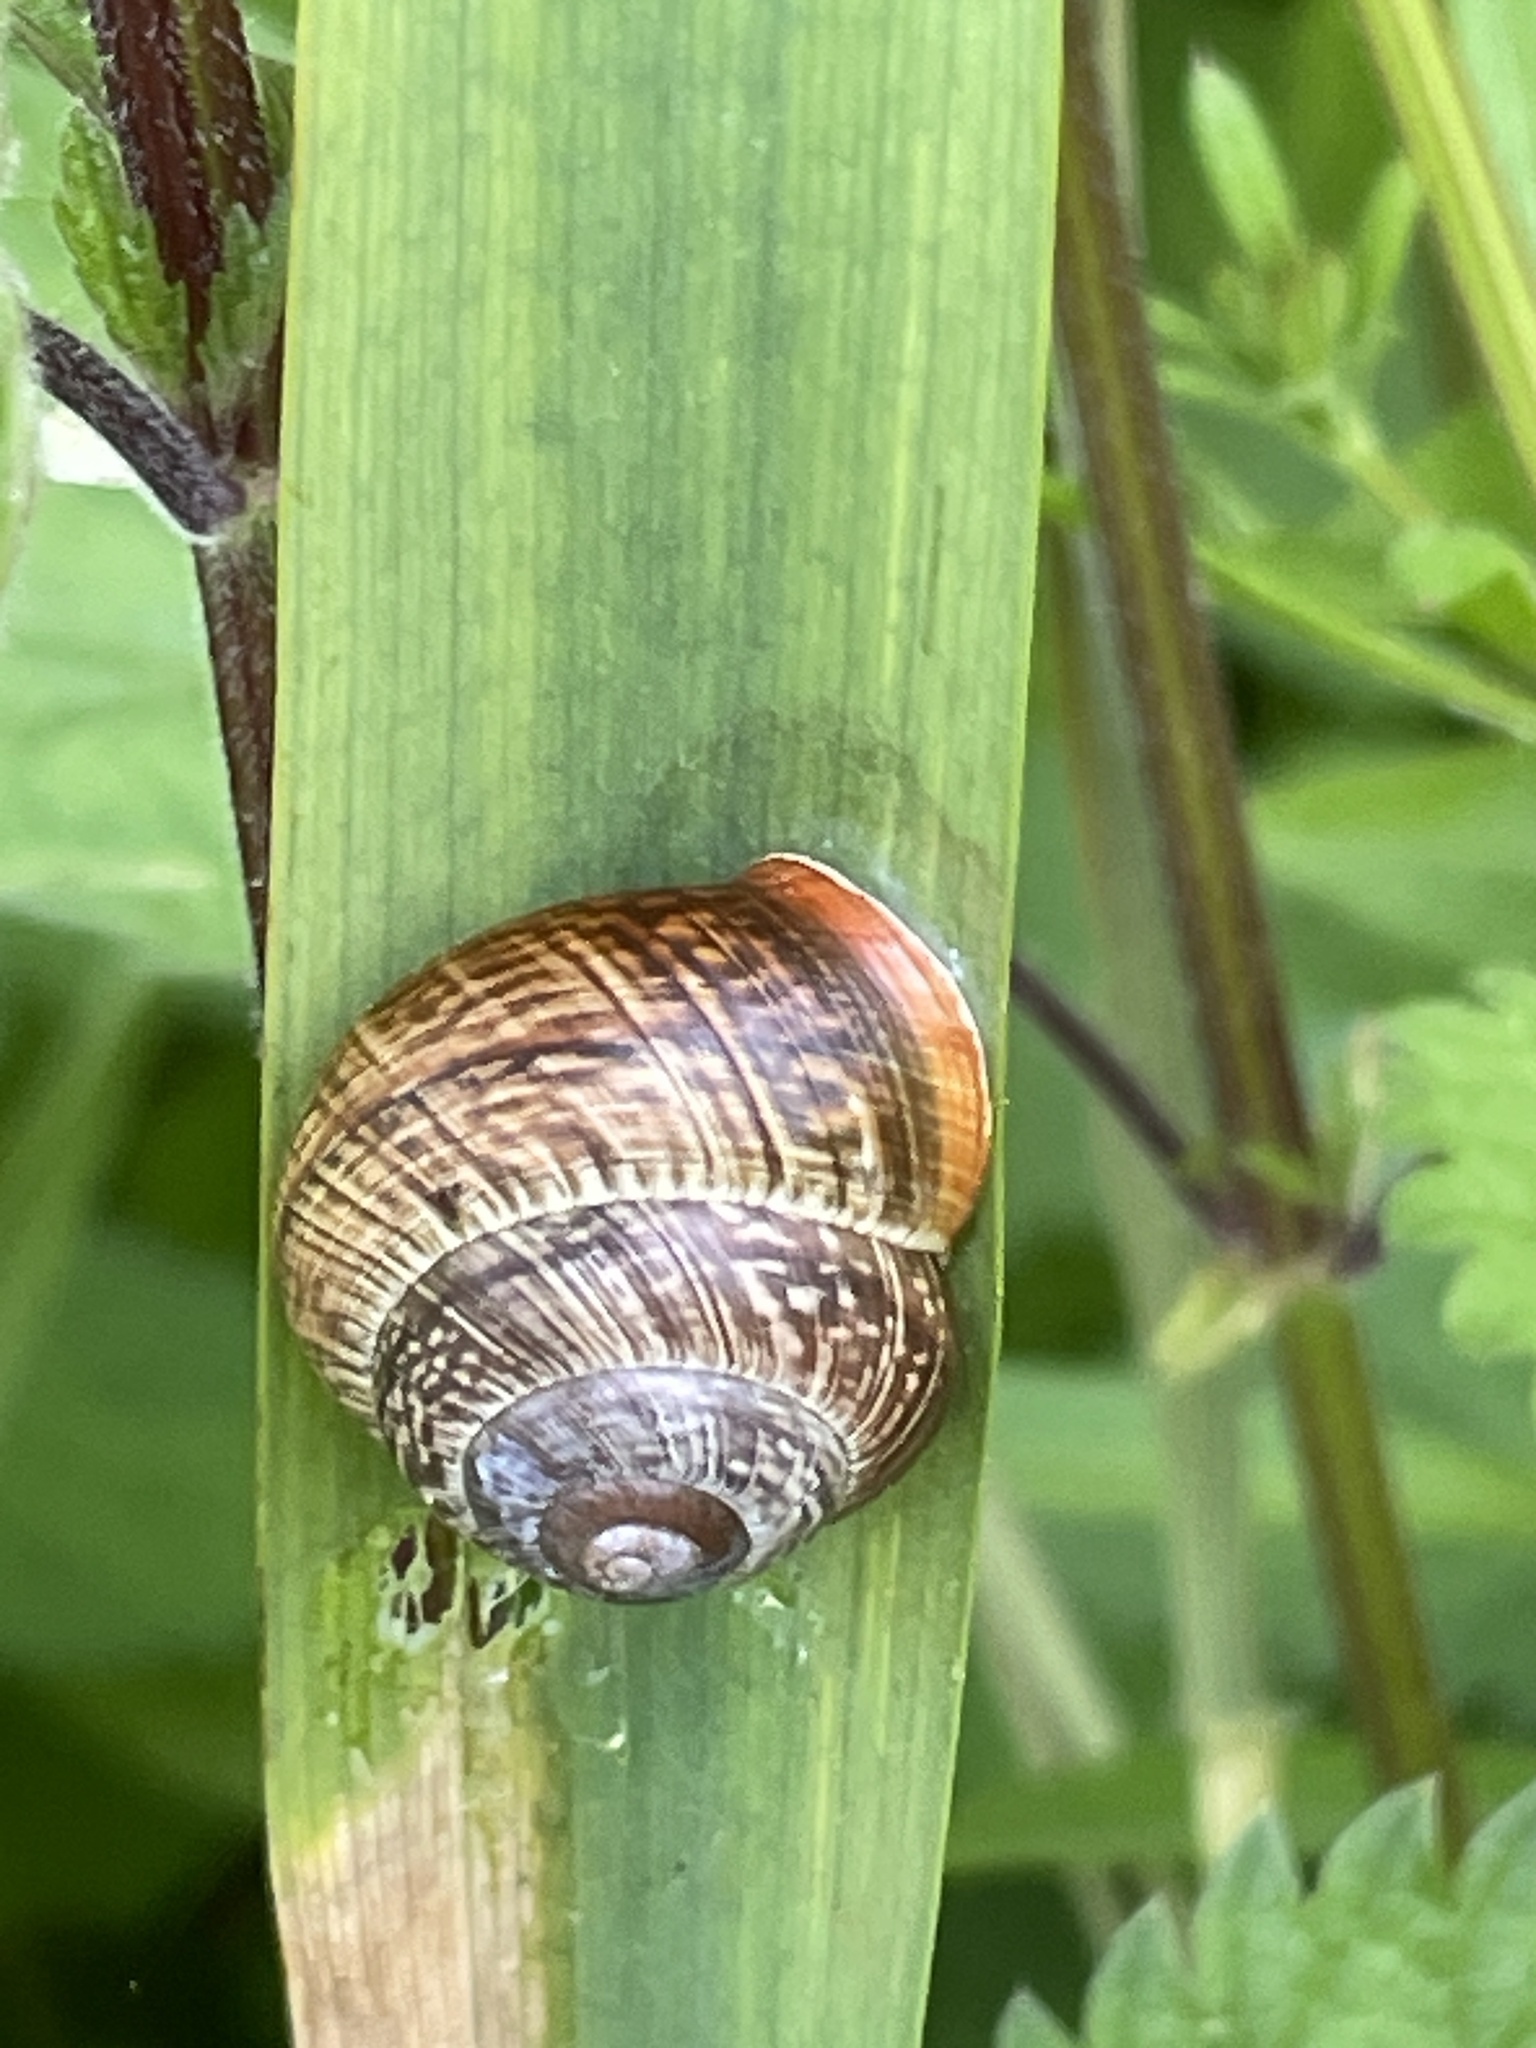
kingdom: Animalia
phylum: Mollusca
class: Gastropoda
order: Stylommatophora
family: Helicidae
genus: Arianta
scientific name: Arianta arbustorum
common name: Copse snail
